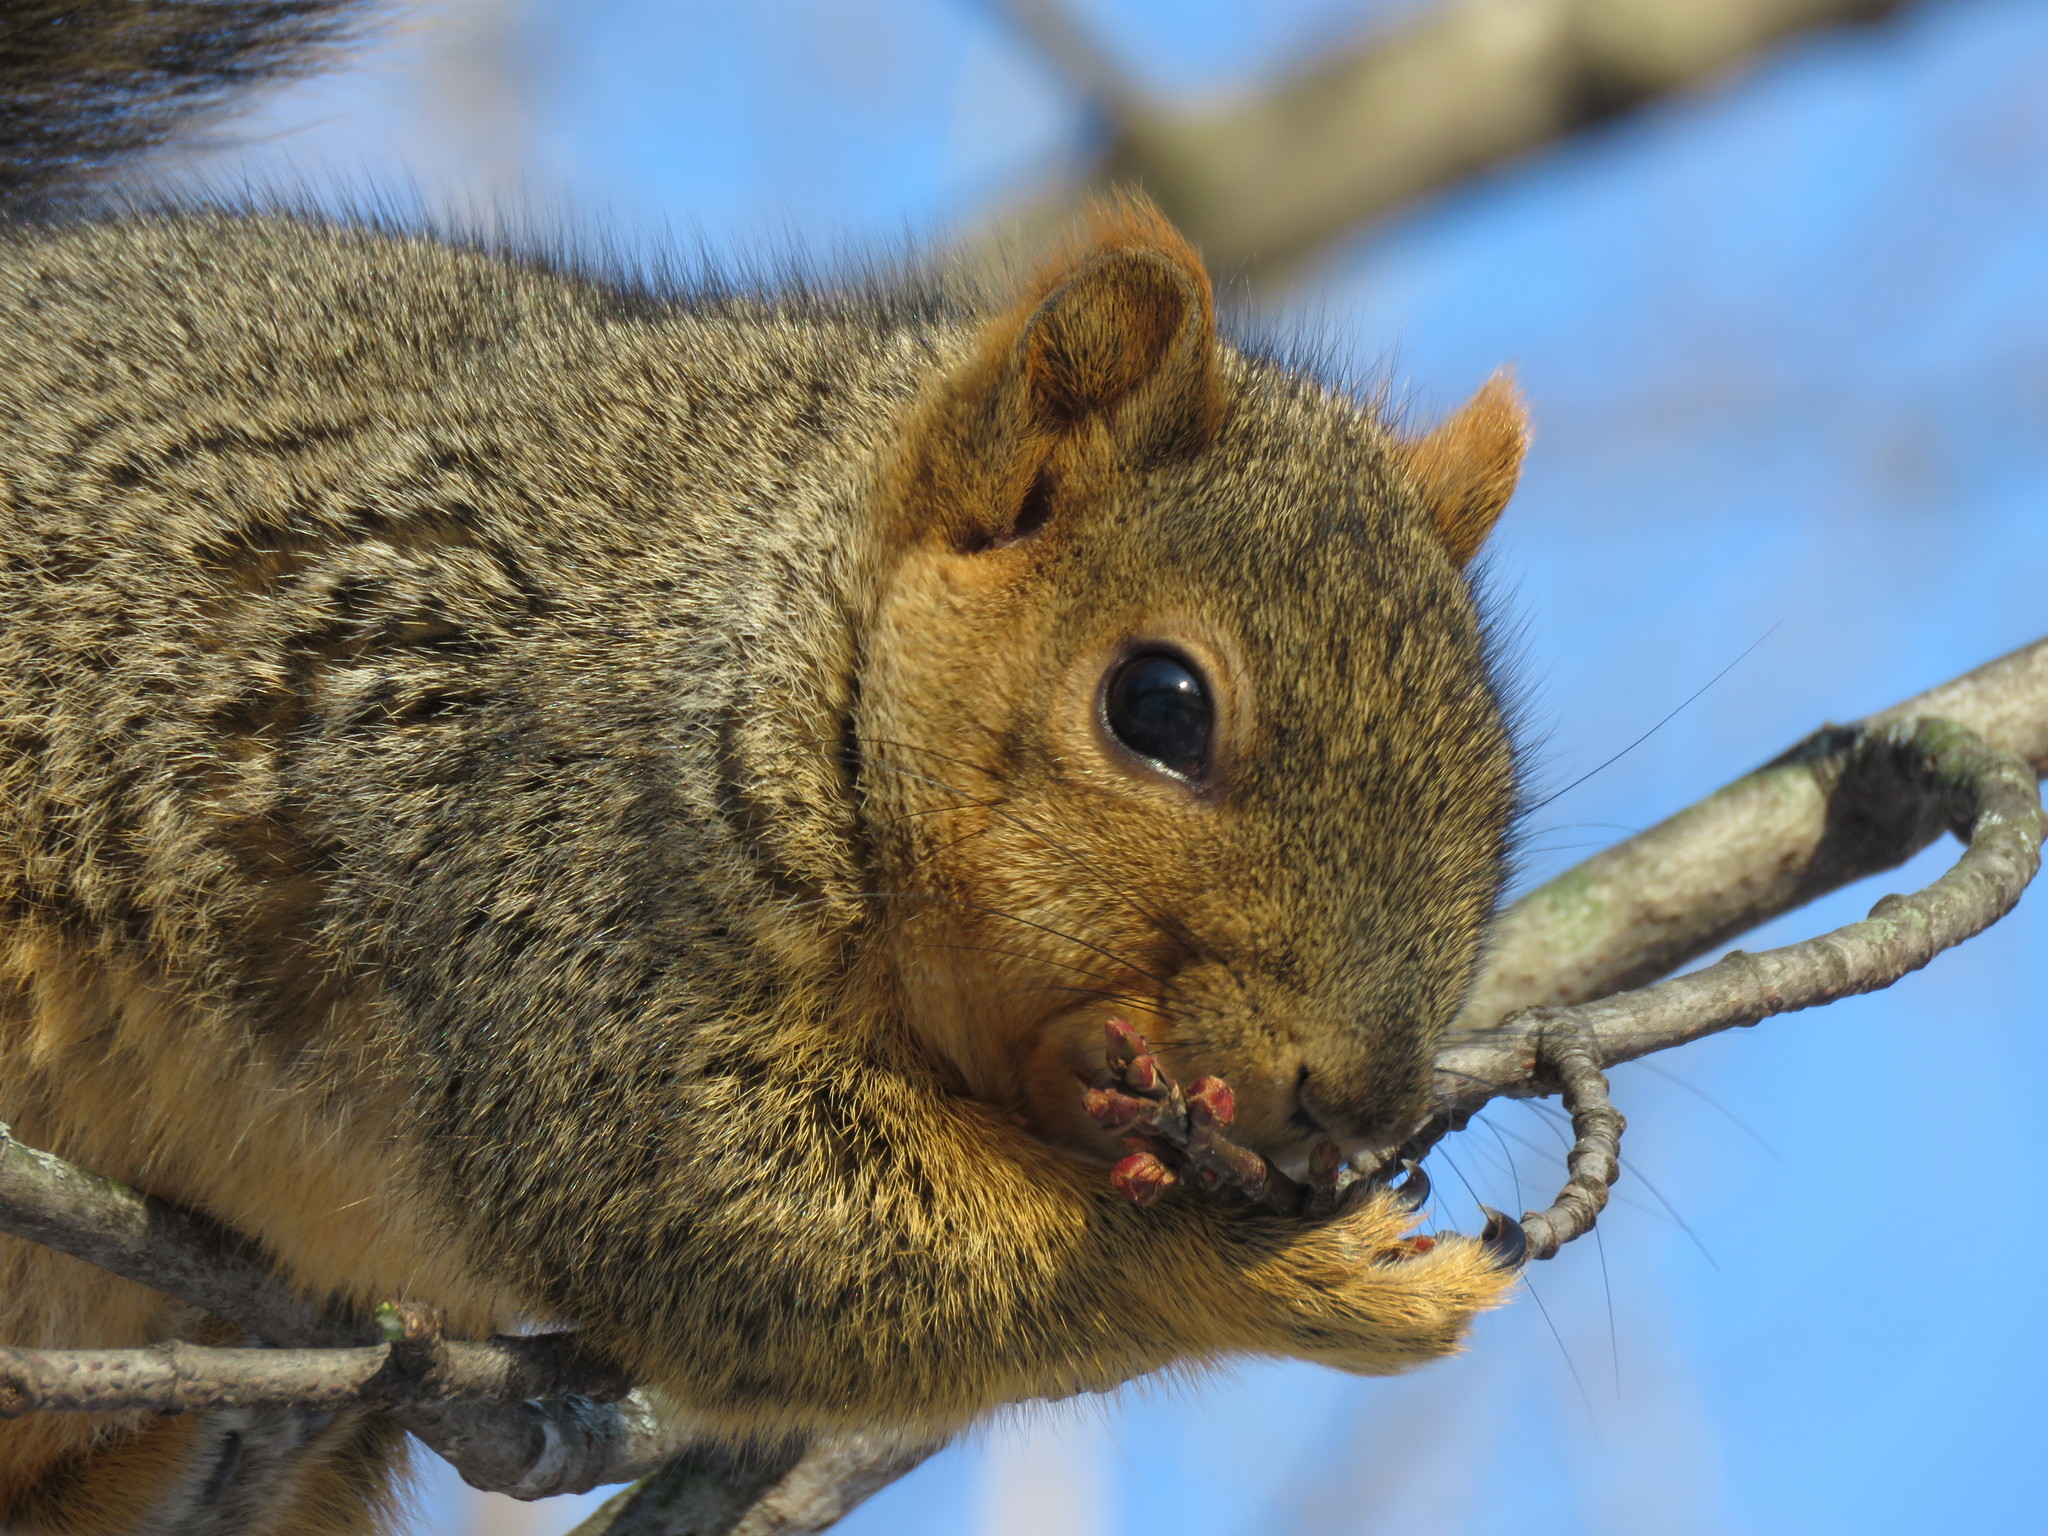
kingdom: Animalia
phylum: Chordata
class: Mammalia
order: Rodentia
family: Sciuridae
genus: Sciurus
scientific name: Sciurus niger
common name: Fox squirrel
